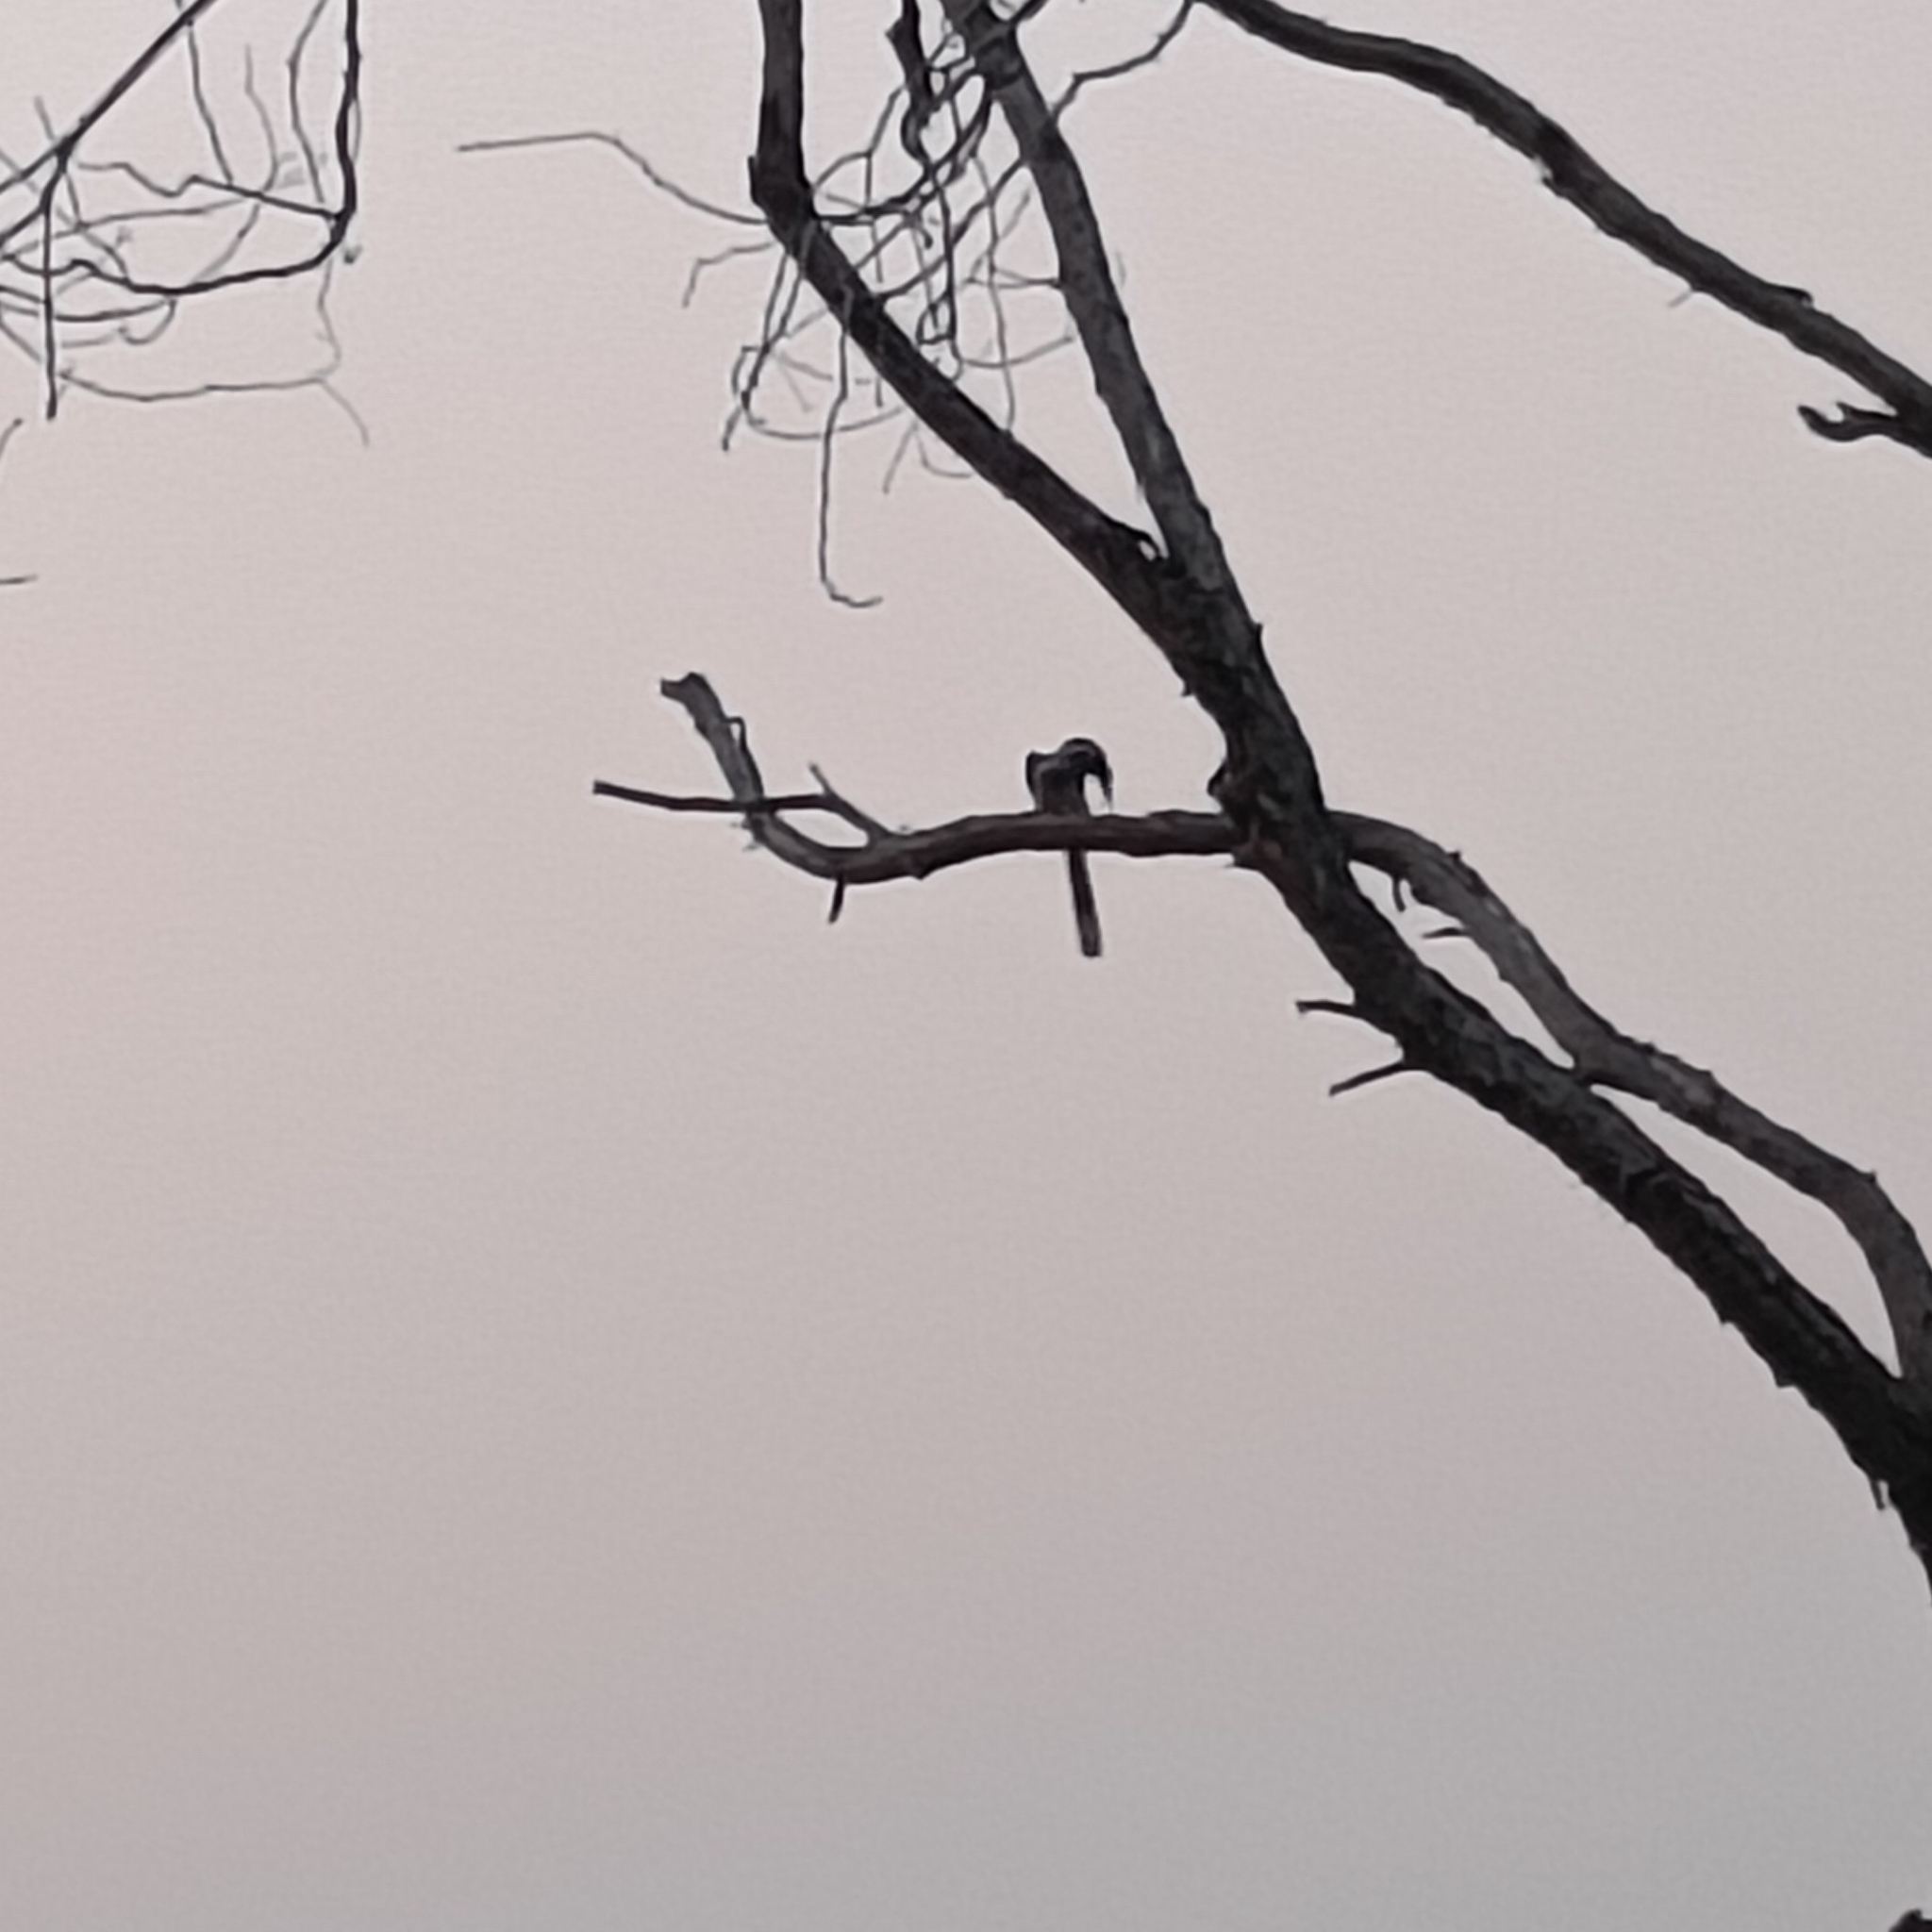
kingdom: Animalia
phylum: Chordata
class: Aves
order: Bucerotiformes
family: Bucerotidae
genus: Ocyceros
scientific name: Ocyceros birostris
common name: Indian grey hornbill
